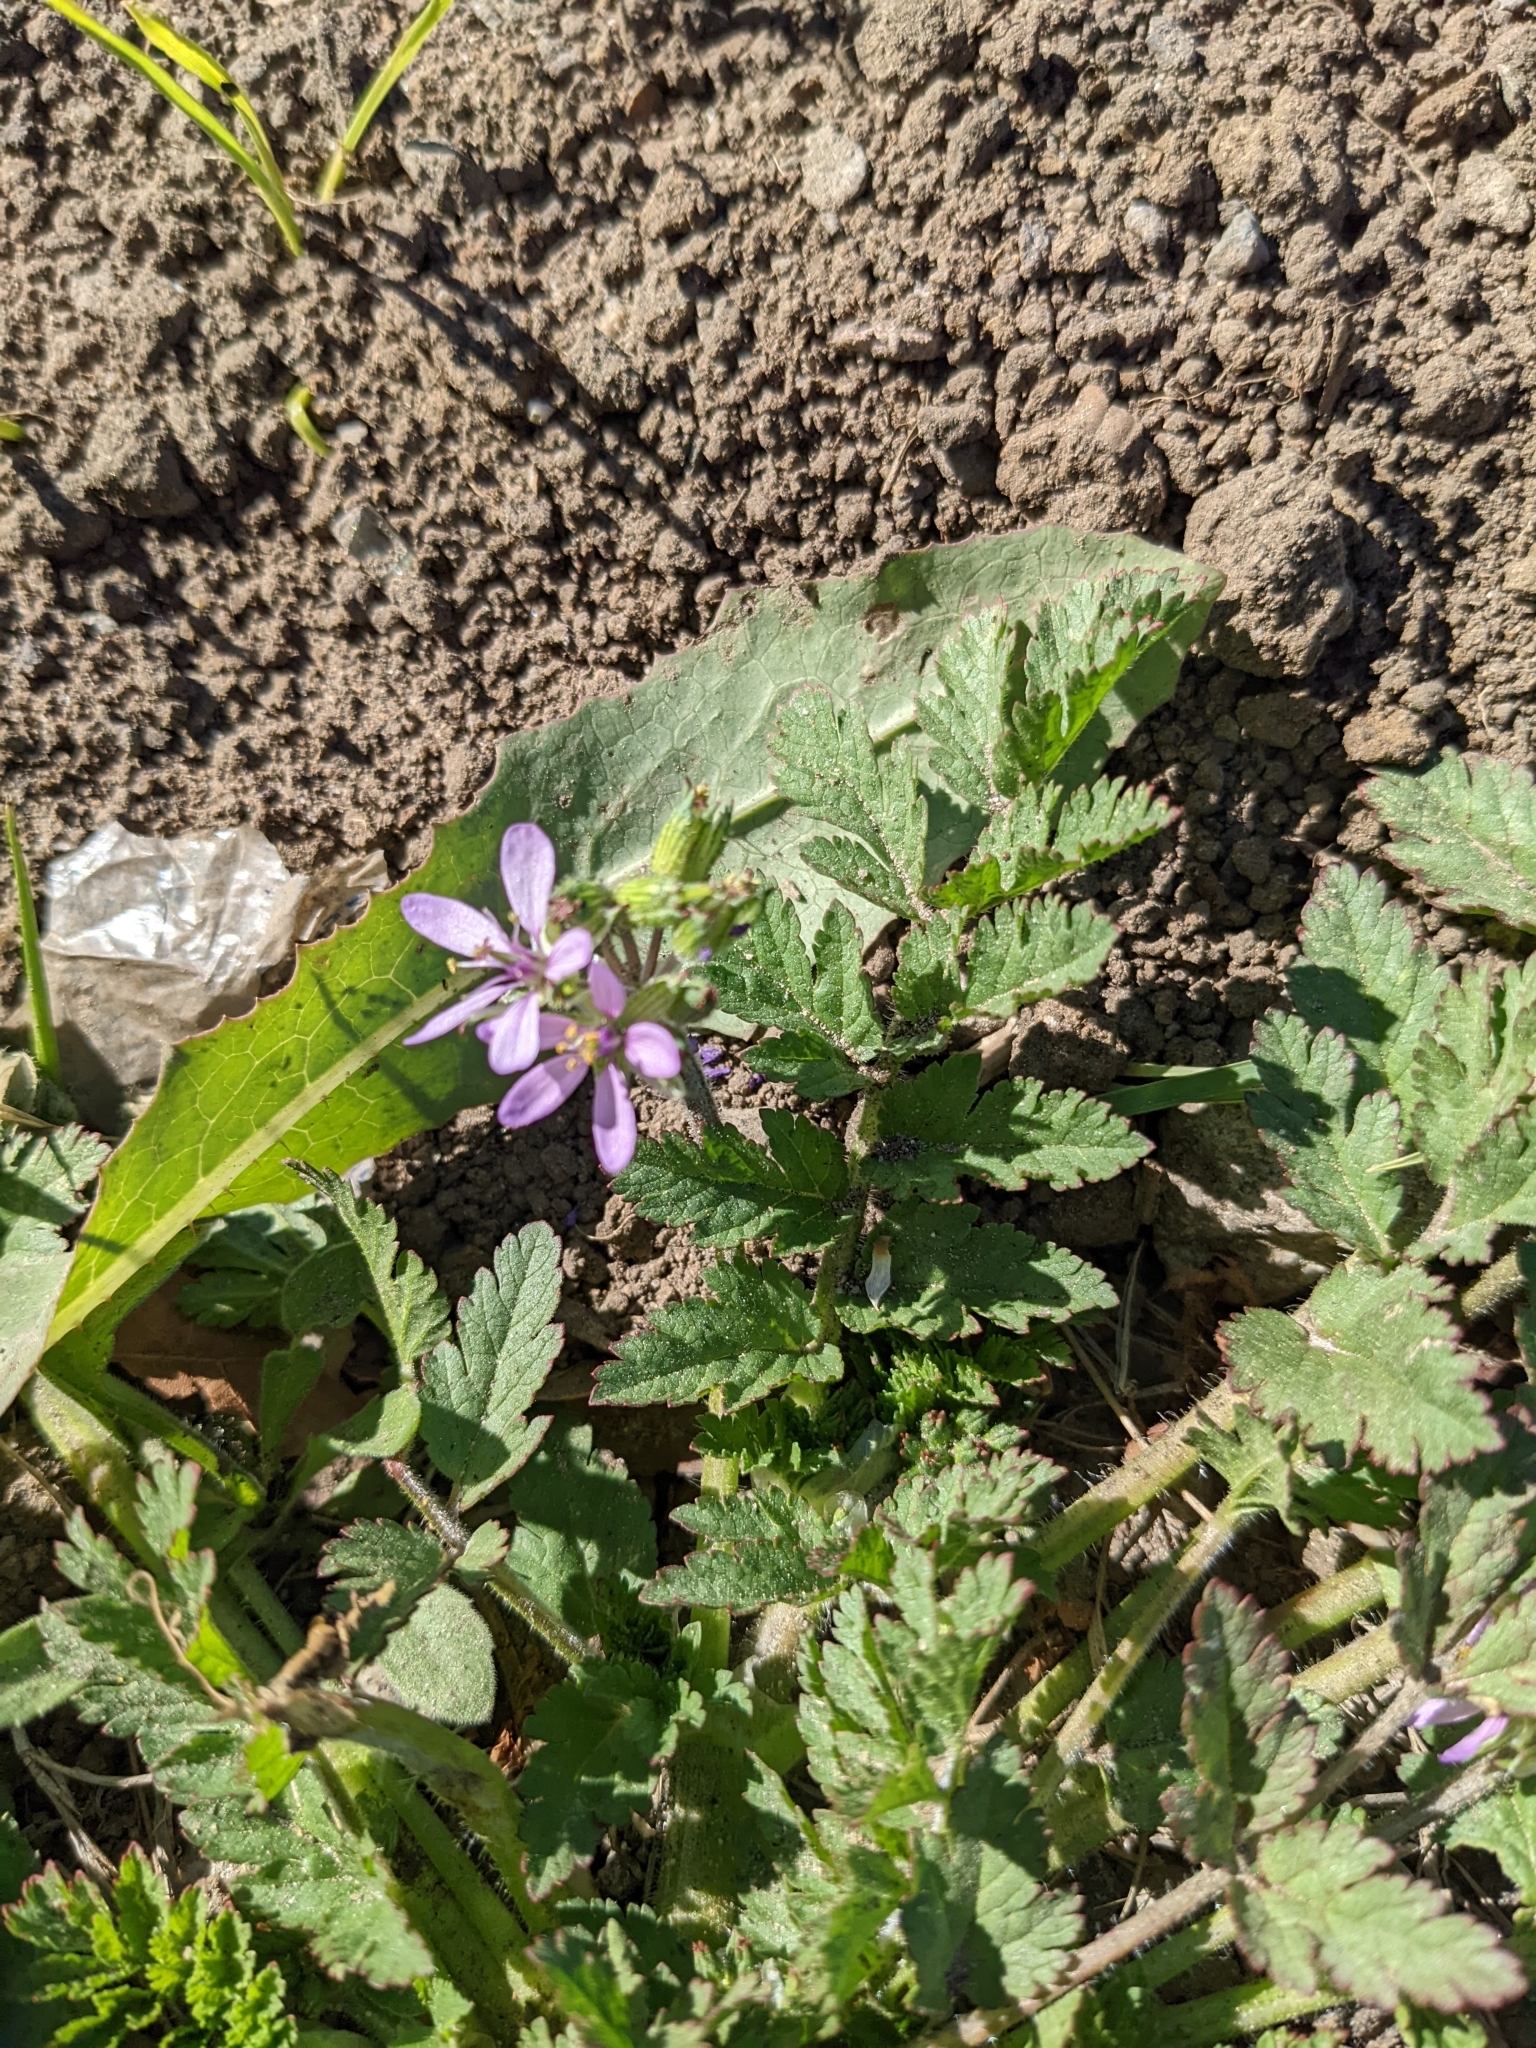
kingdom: Plantae
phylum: Tracheophyta
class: Magnoliopsida
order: Geraniales
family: Geraniaceae
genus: Erodium
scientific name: Erodium moschatum
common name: Musk stork's-bill
